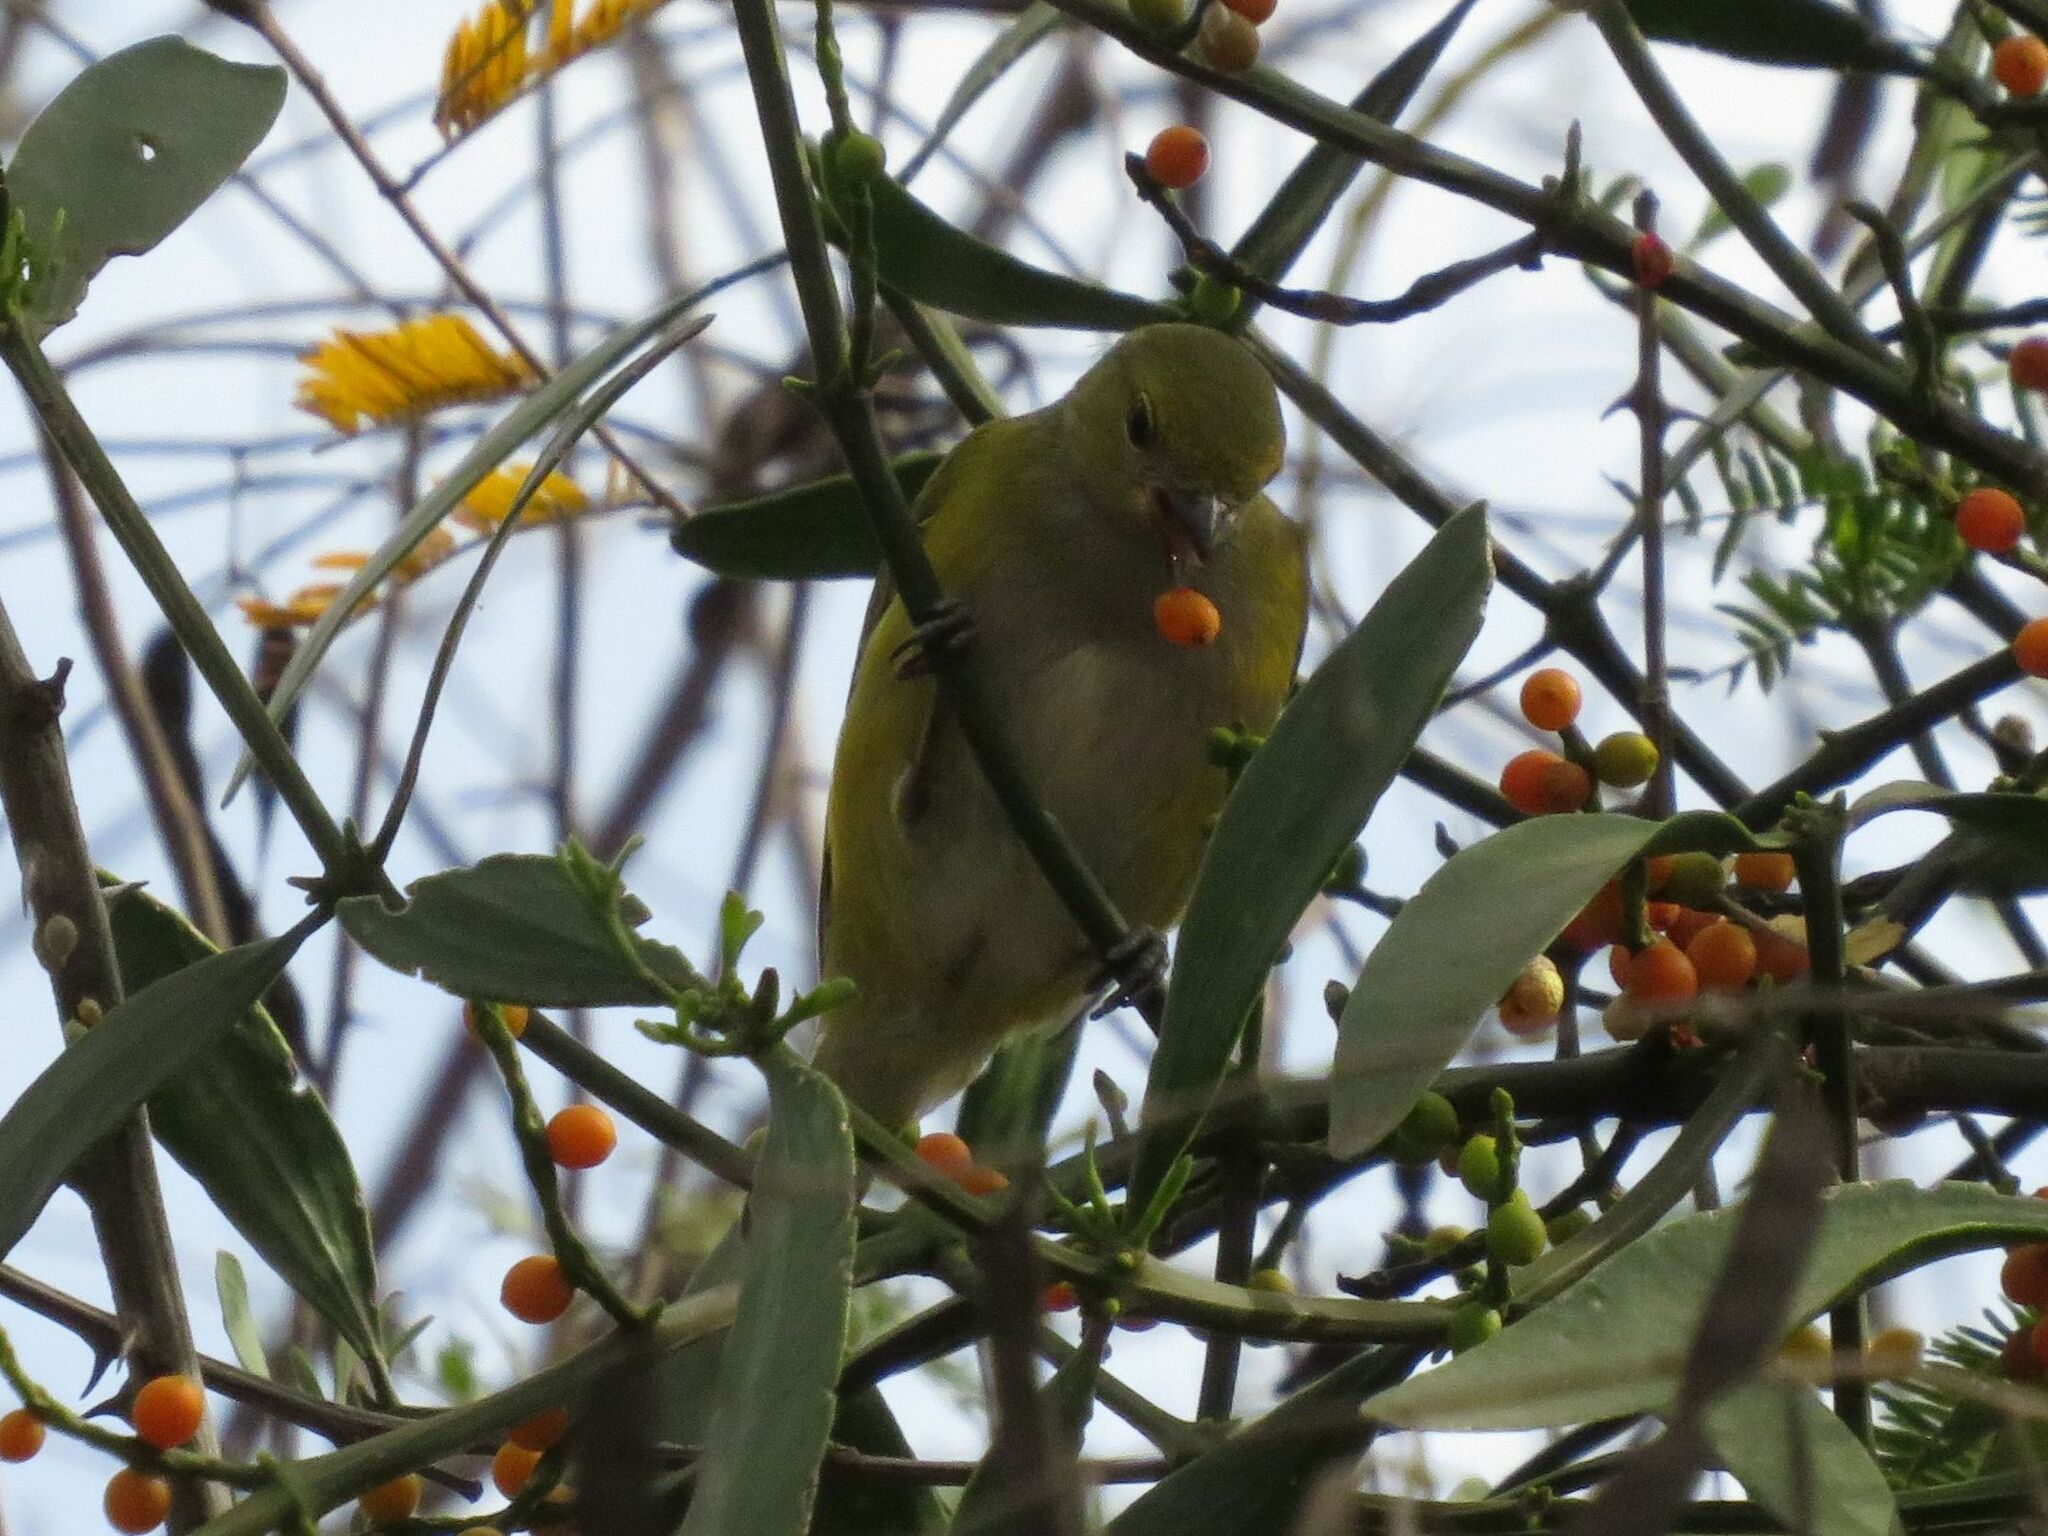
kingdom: Animalia
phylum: Chordata
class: Aves
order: Passeriformes
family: Fringillidae
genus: Euphonia
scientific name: Euphonia chlorotica
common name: Purple-throated euphonia
